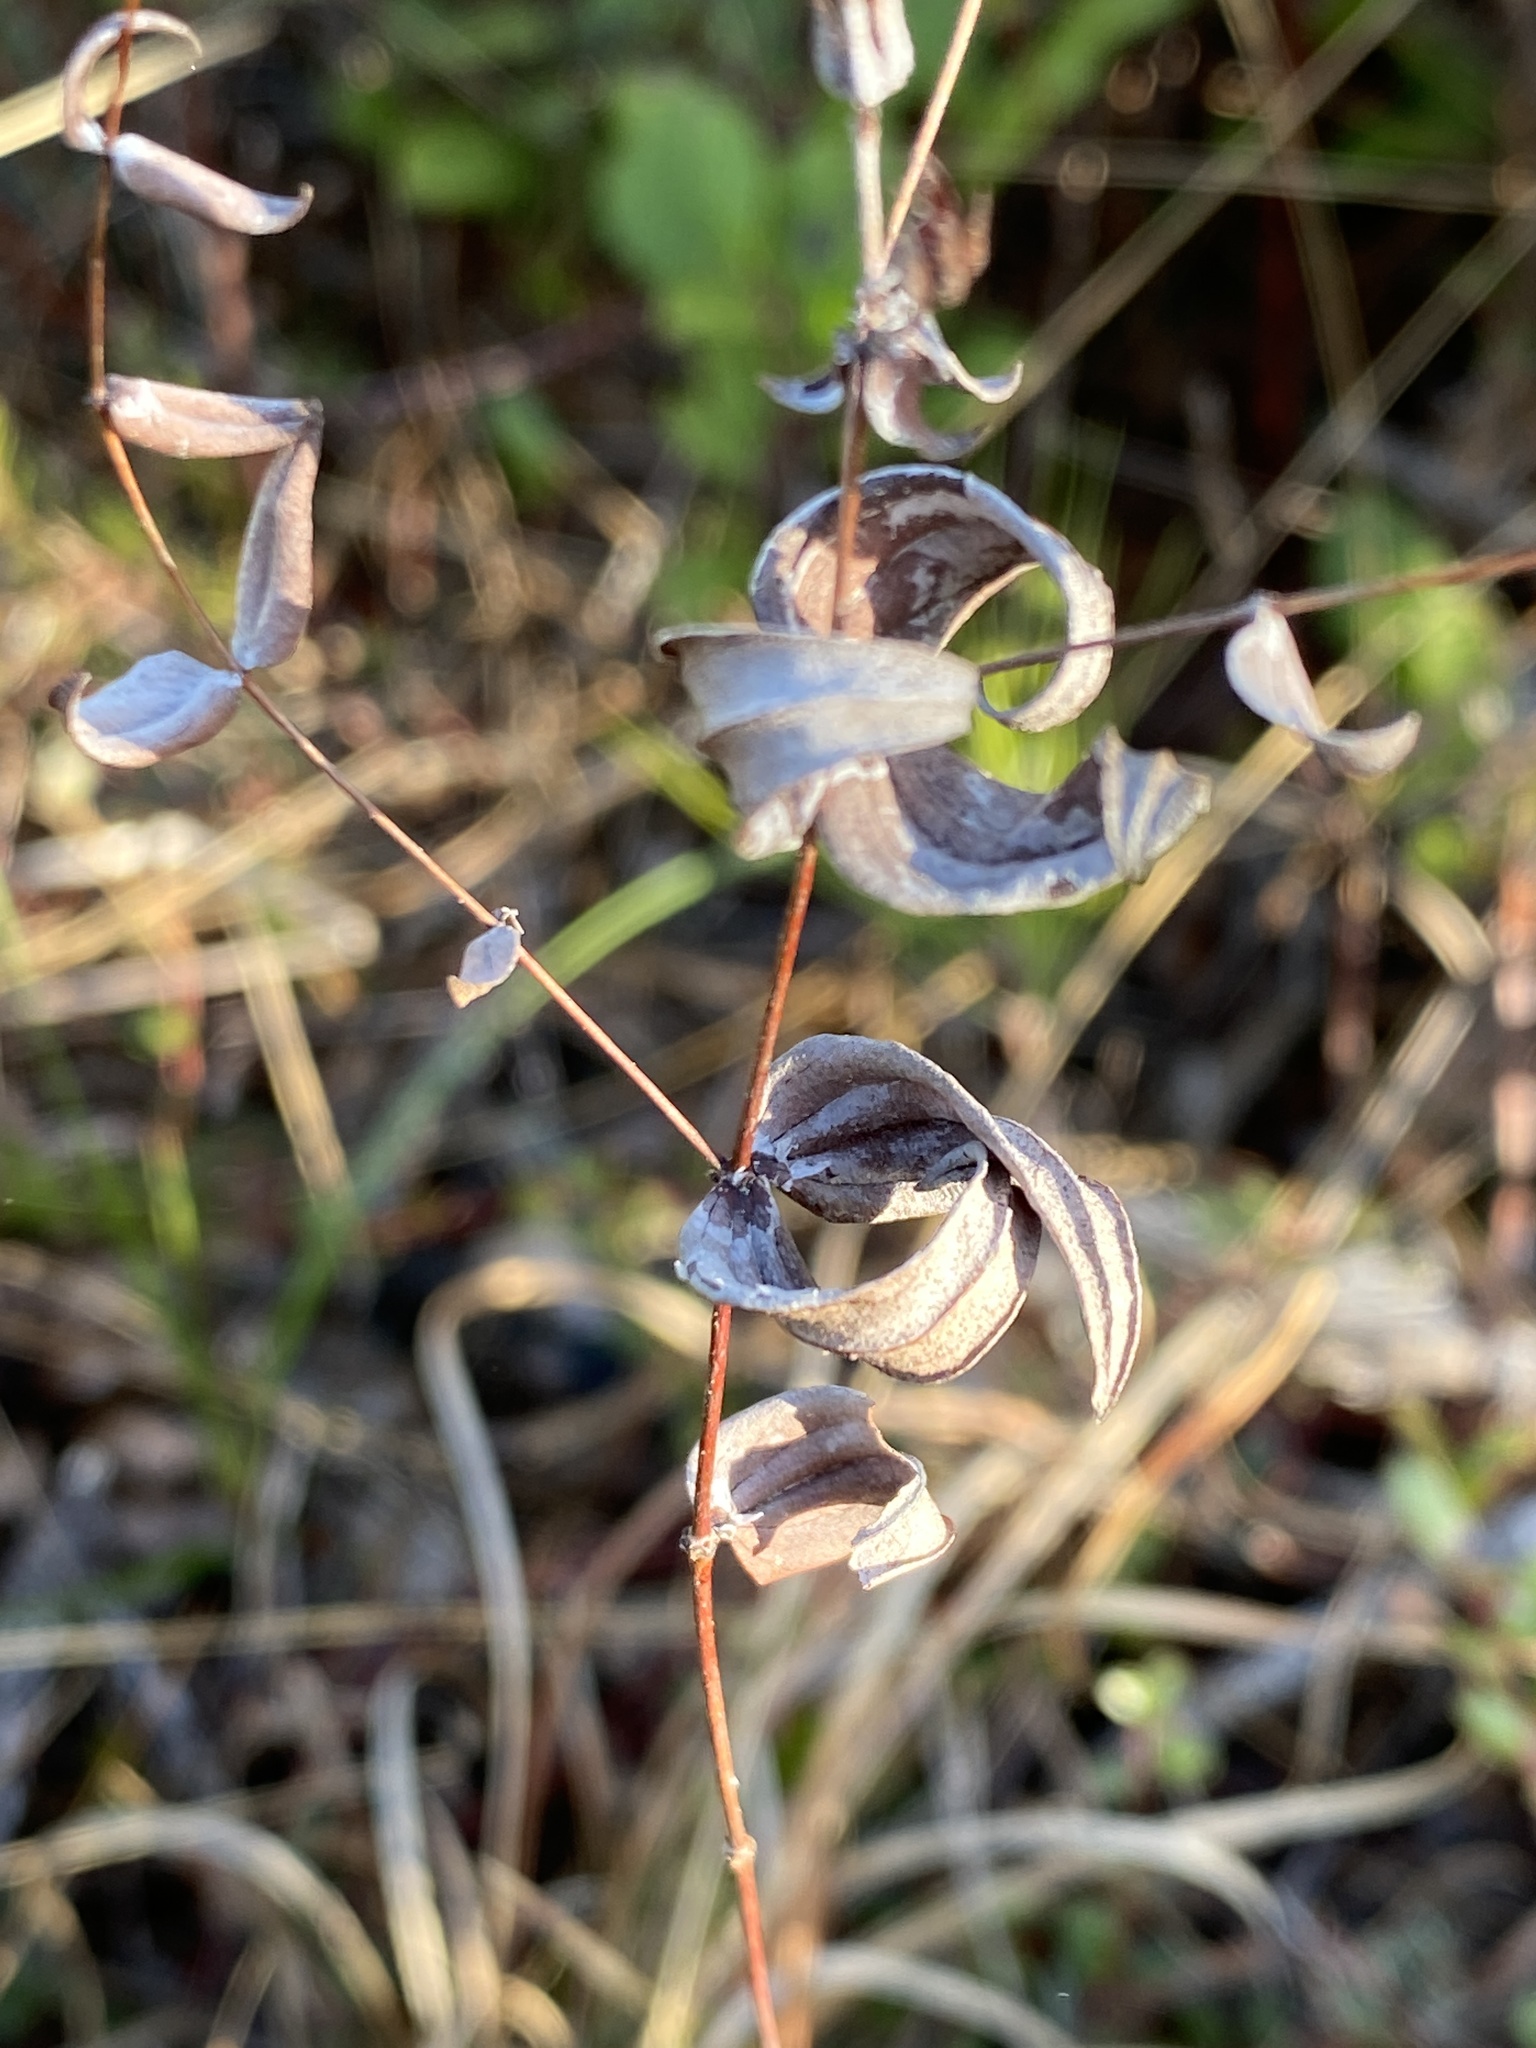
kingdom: Plantae
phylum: Tracheophyta
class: Magnoliopsida
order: Ericales
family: Primulaceae
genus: Lysimachia
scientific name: Lysimachia asperulifolia
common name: Rough-leaf loosestrife
